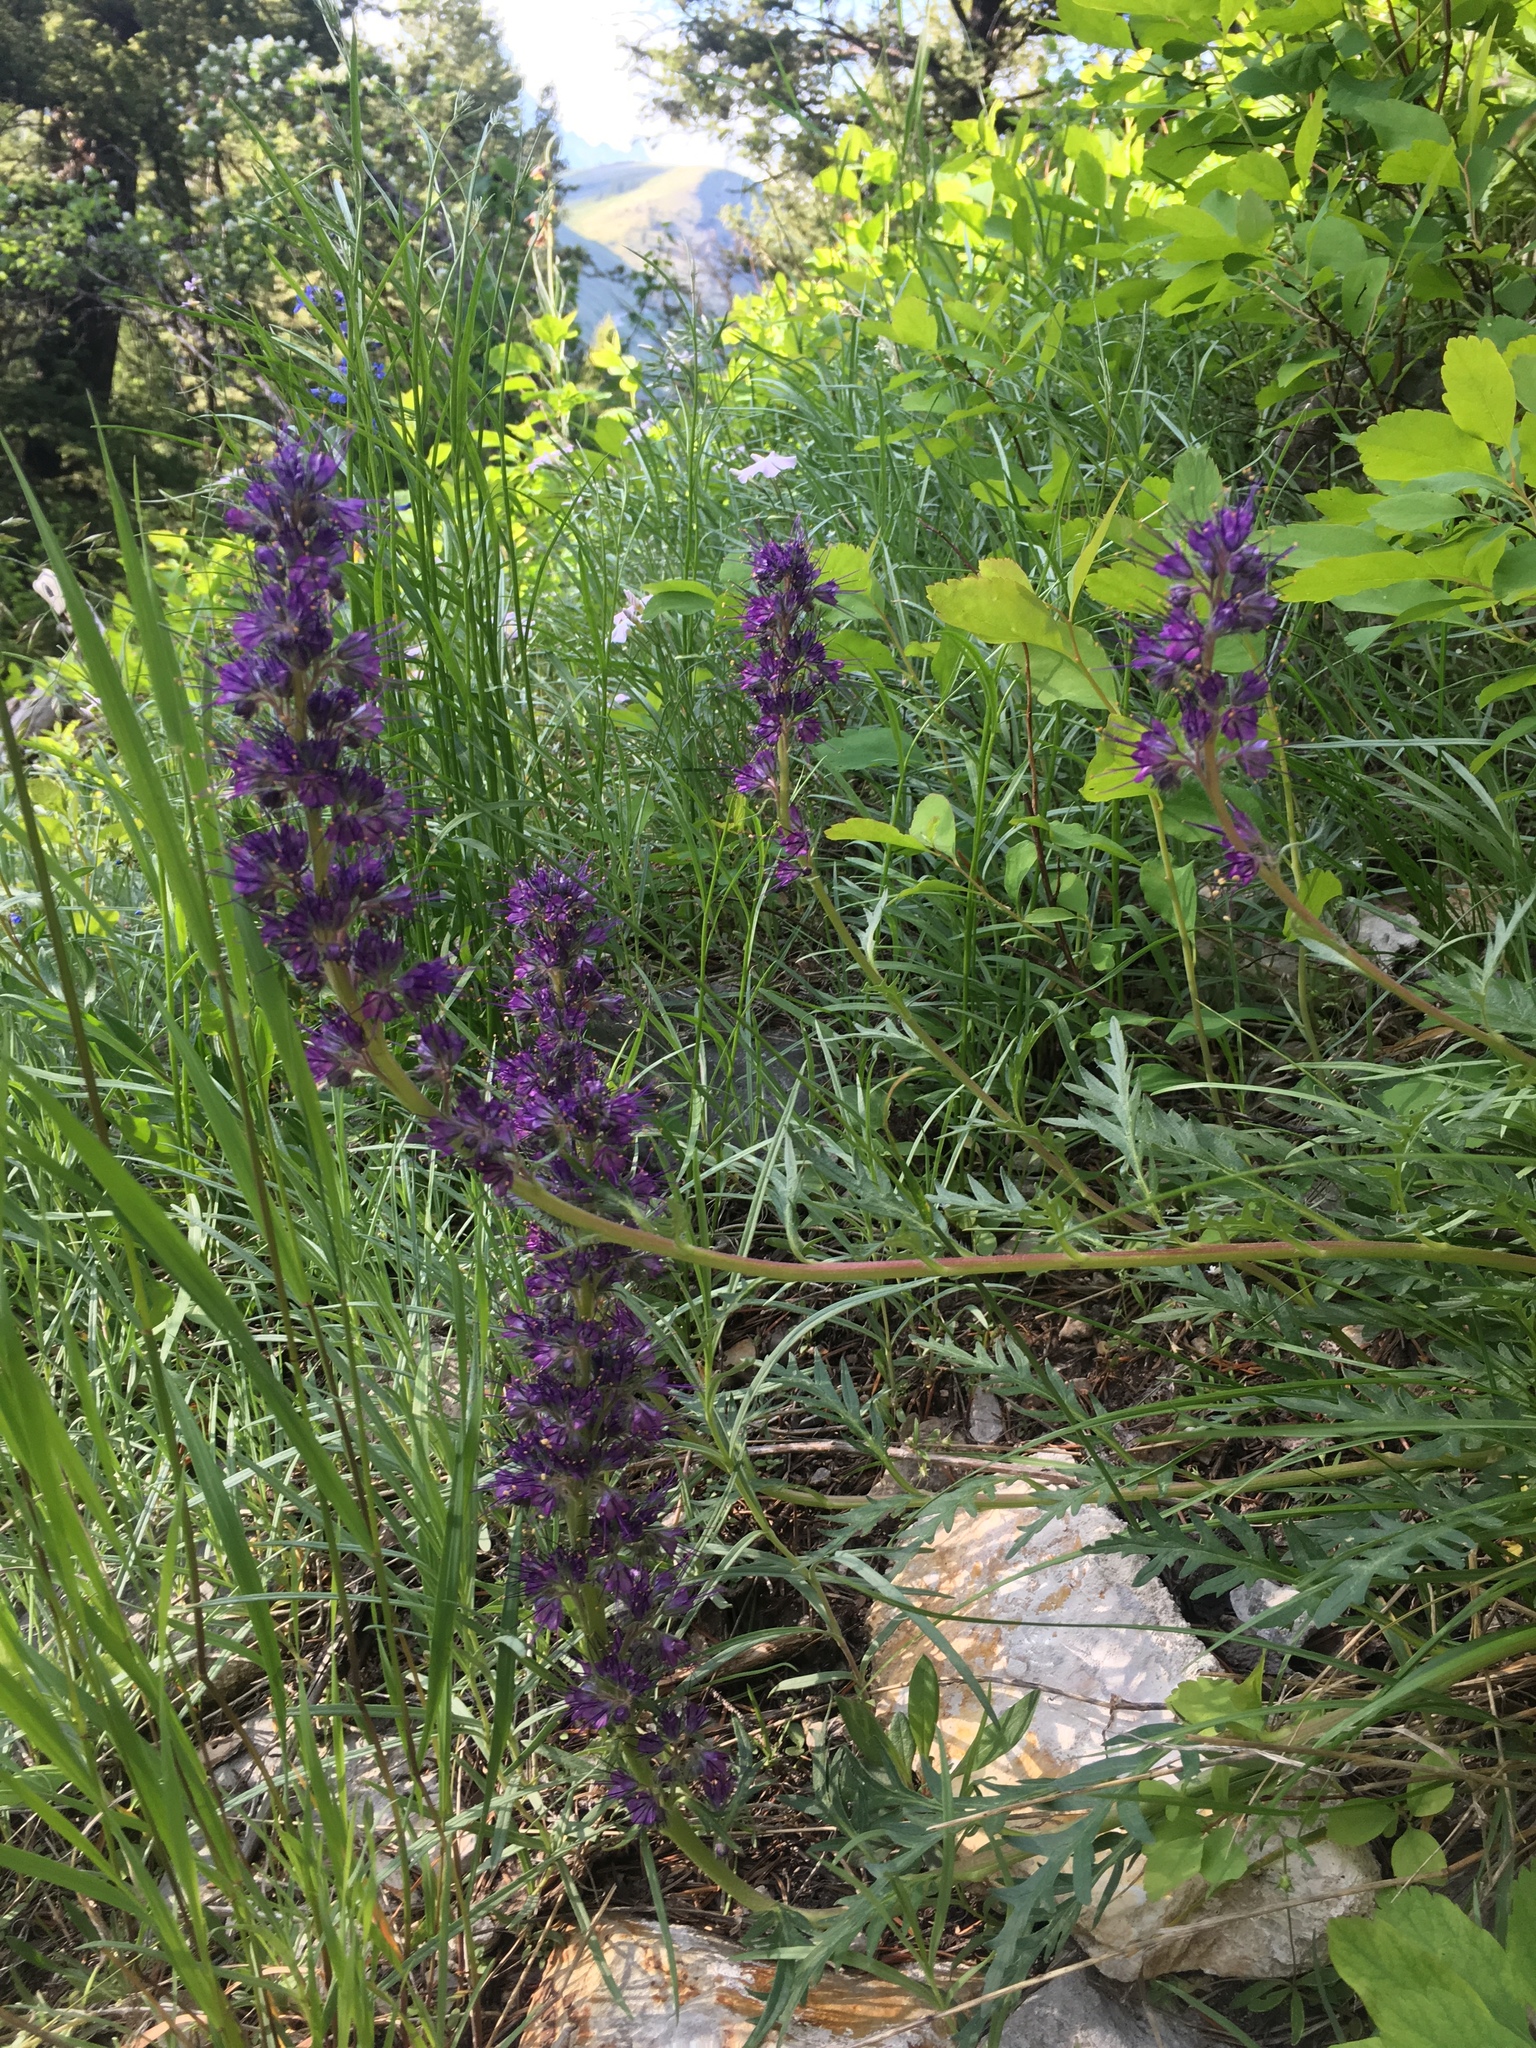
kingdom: Plantae
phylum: Tracheophyta
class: Magnoliopsida
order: Boraginales
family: Hydrophyllaceae
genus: Phacelia
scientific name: Phacelia sericea
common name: Silky phacelia
